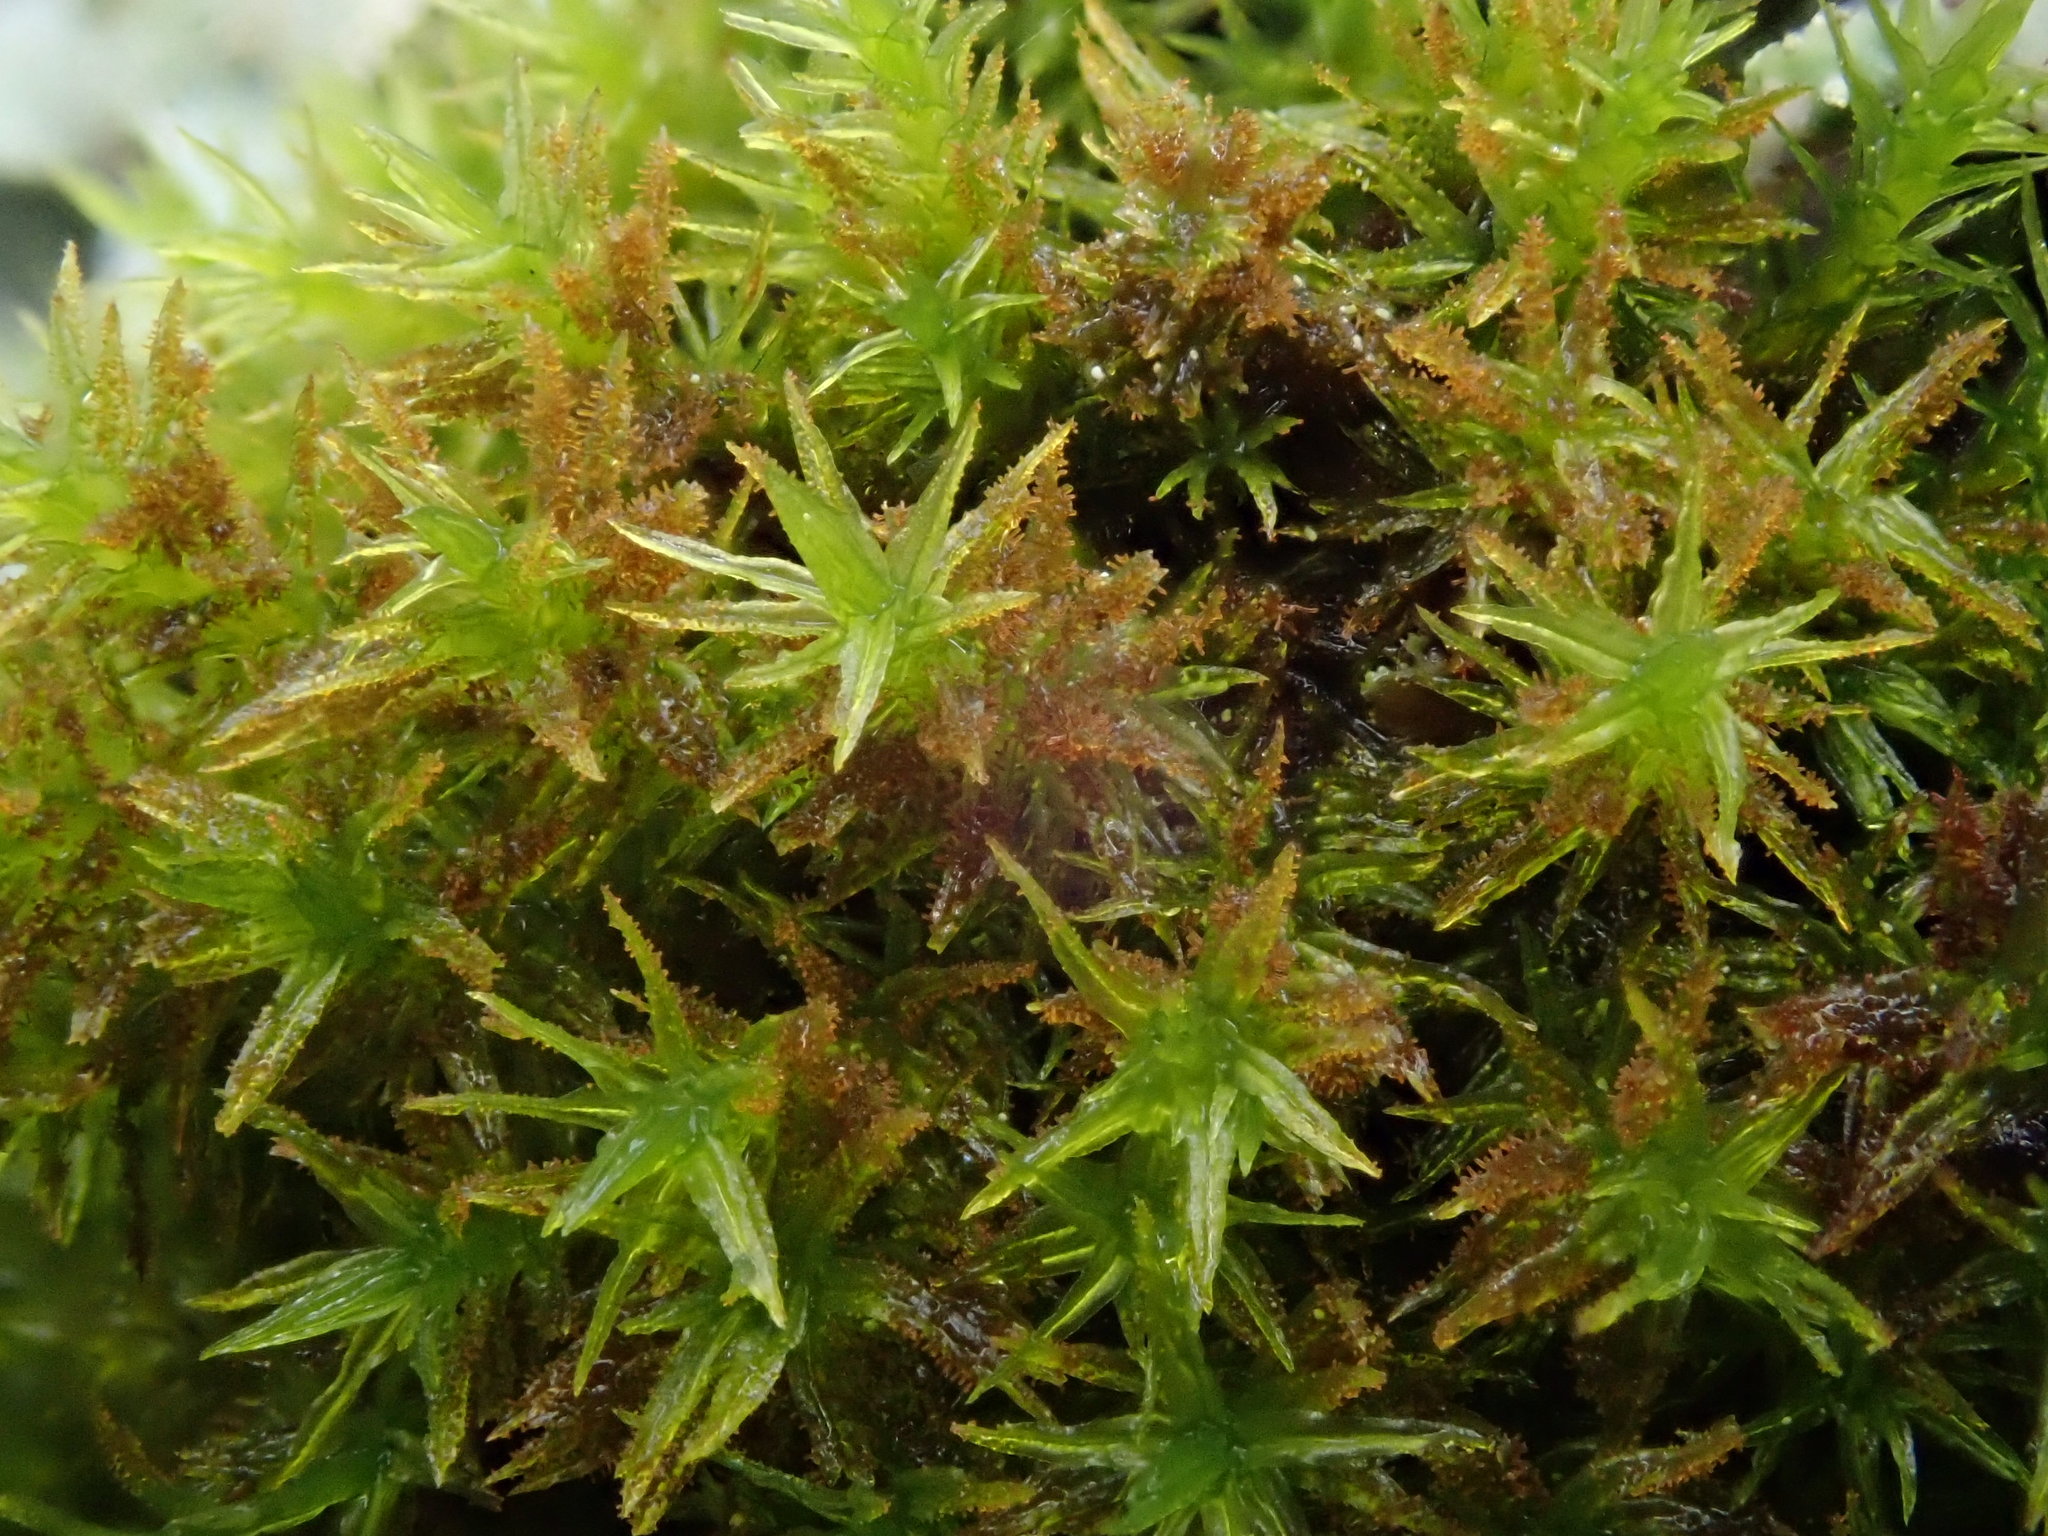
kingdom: Plantae
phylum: Bryophyta
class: Bryopsida
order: Orthotrichales
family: Orthotrichaceae
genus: Pulvigera
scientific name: Pulvigera lyellii
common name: Lyell's bristle-moss
